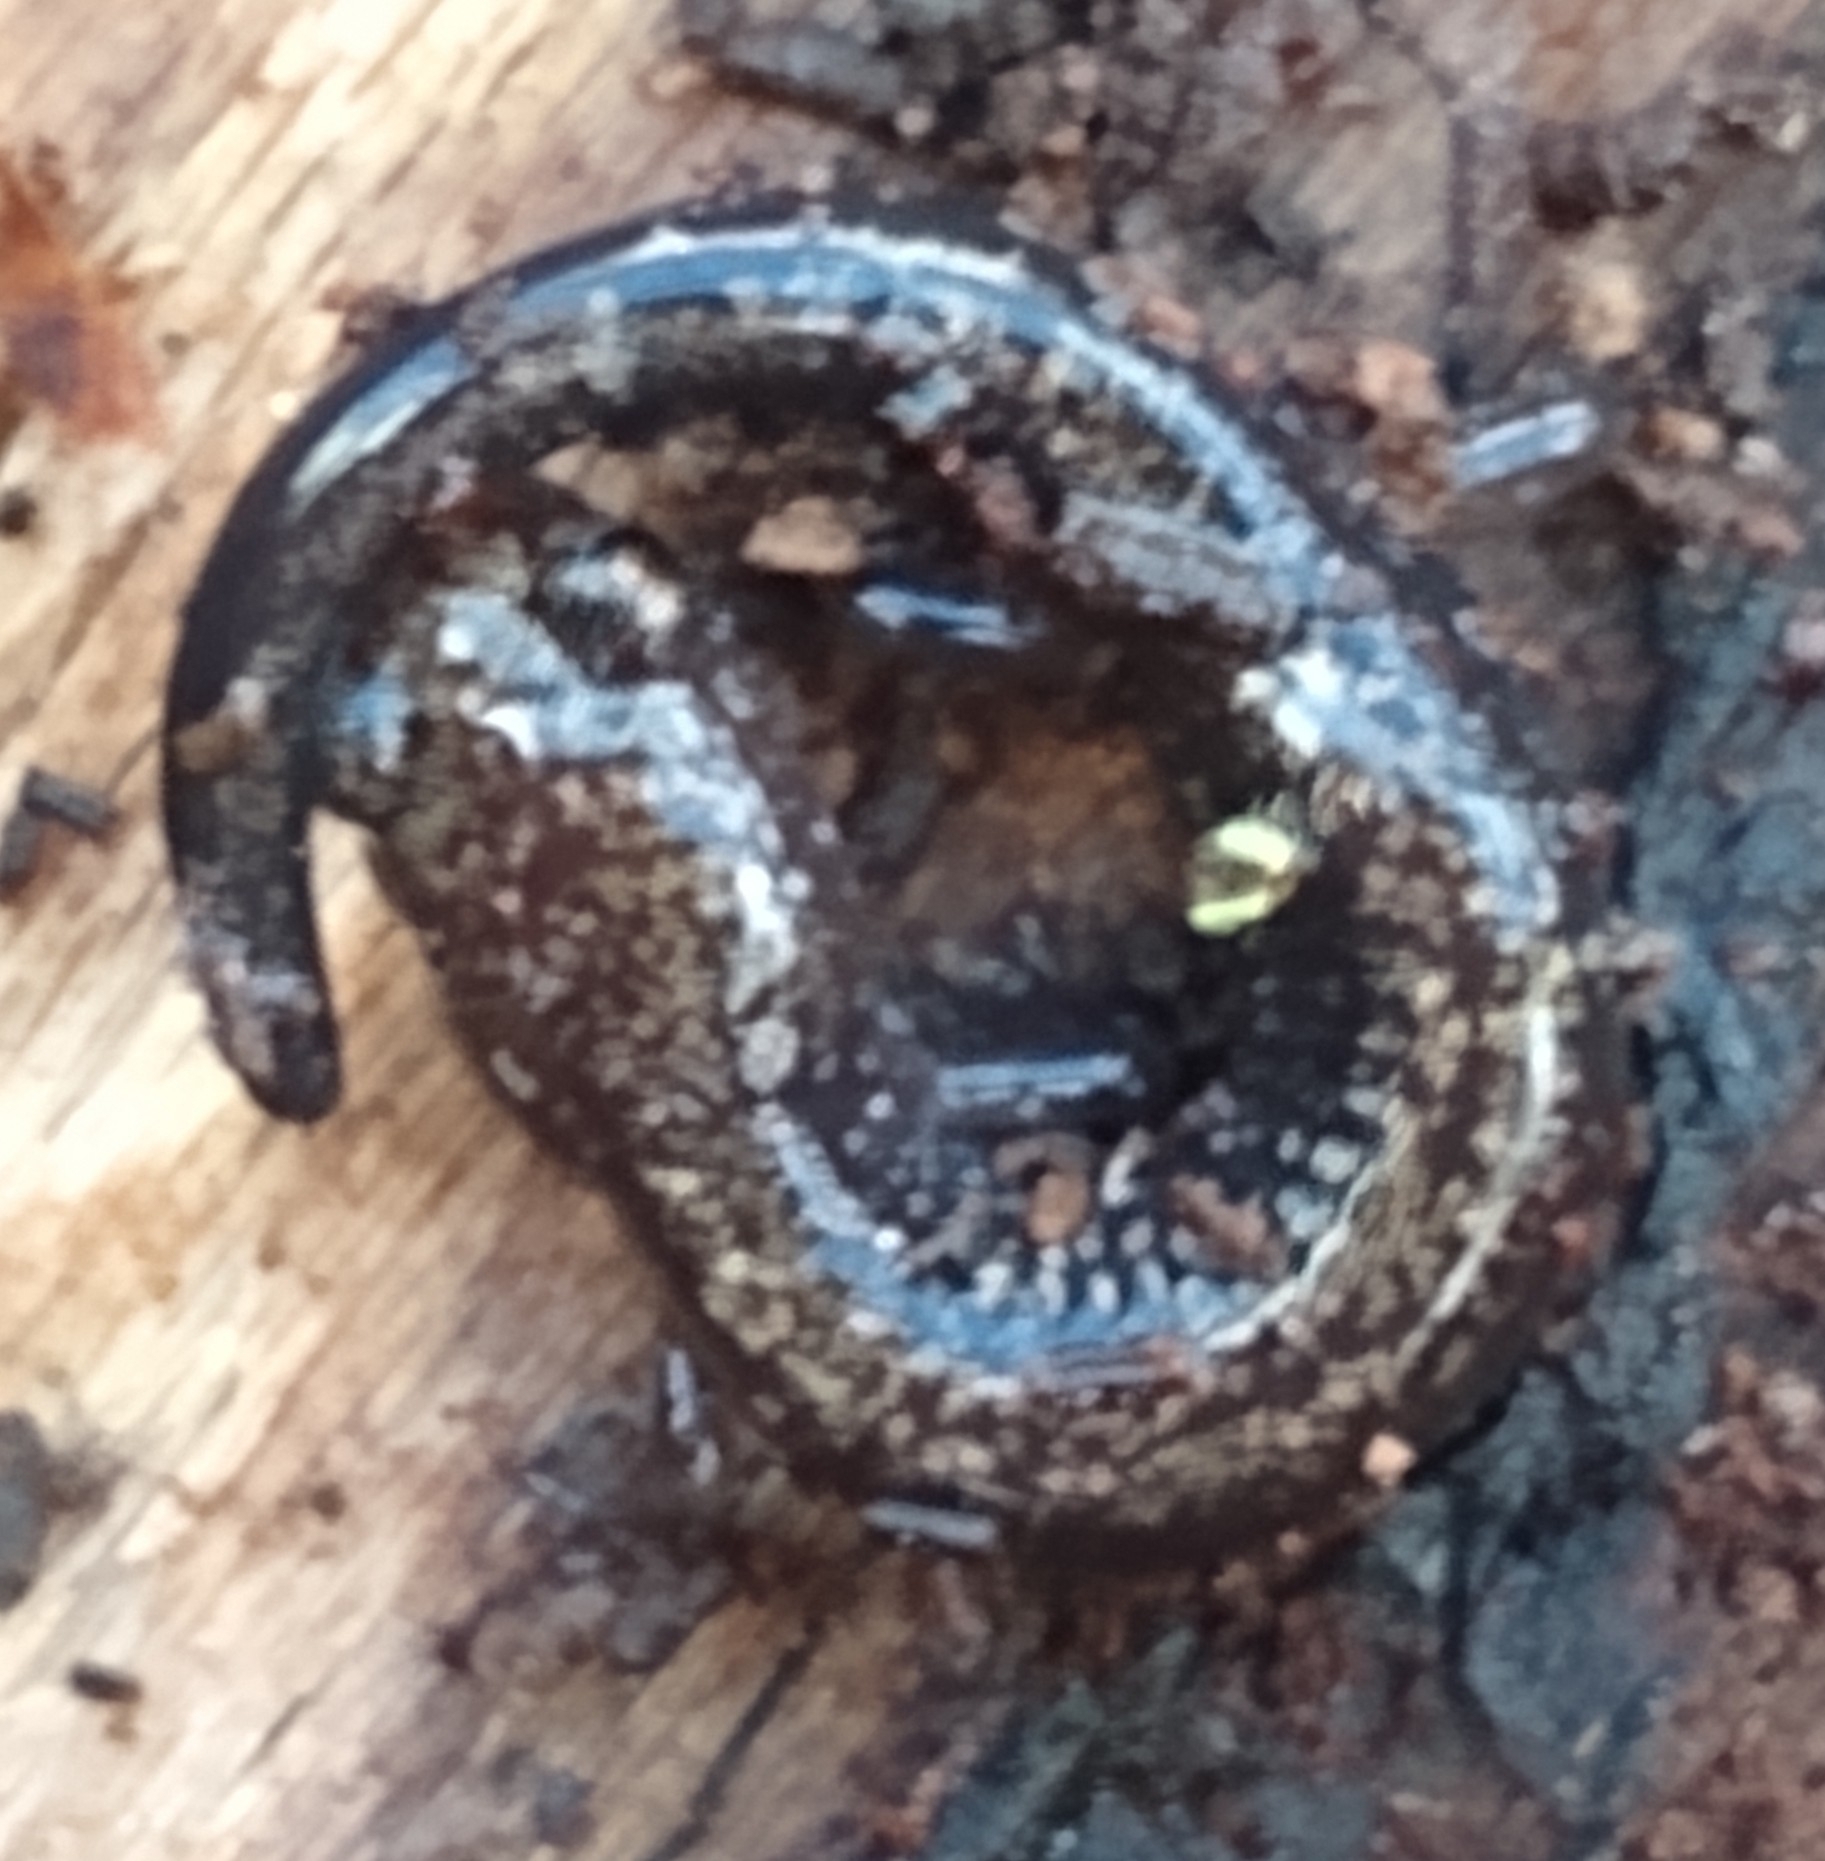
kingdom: Animalia
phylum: Chordata
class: Amphibia
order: Caudata
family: Plethodontidae
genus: Plethodon
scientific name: Plethodon hubrichti
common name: Peaks of otter salamander
